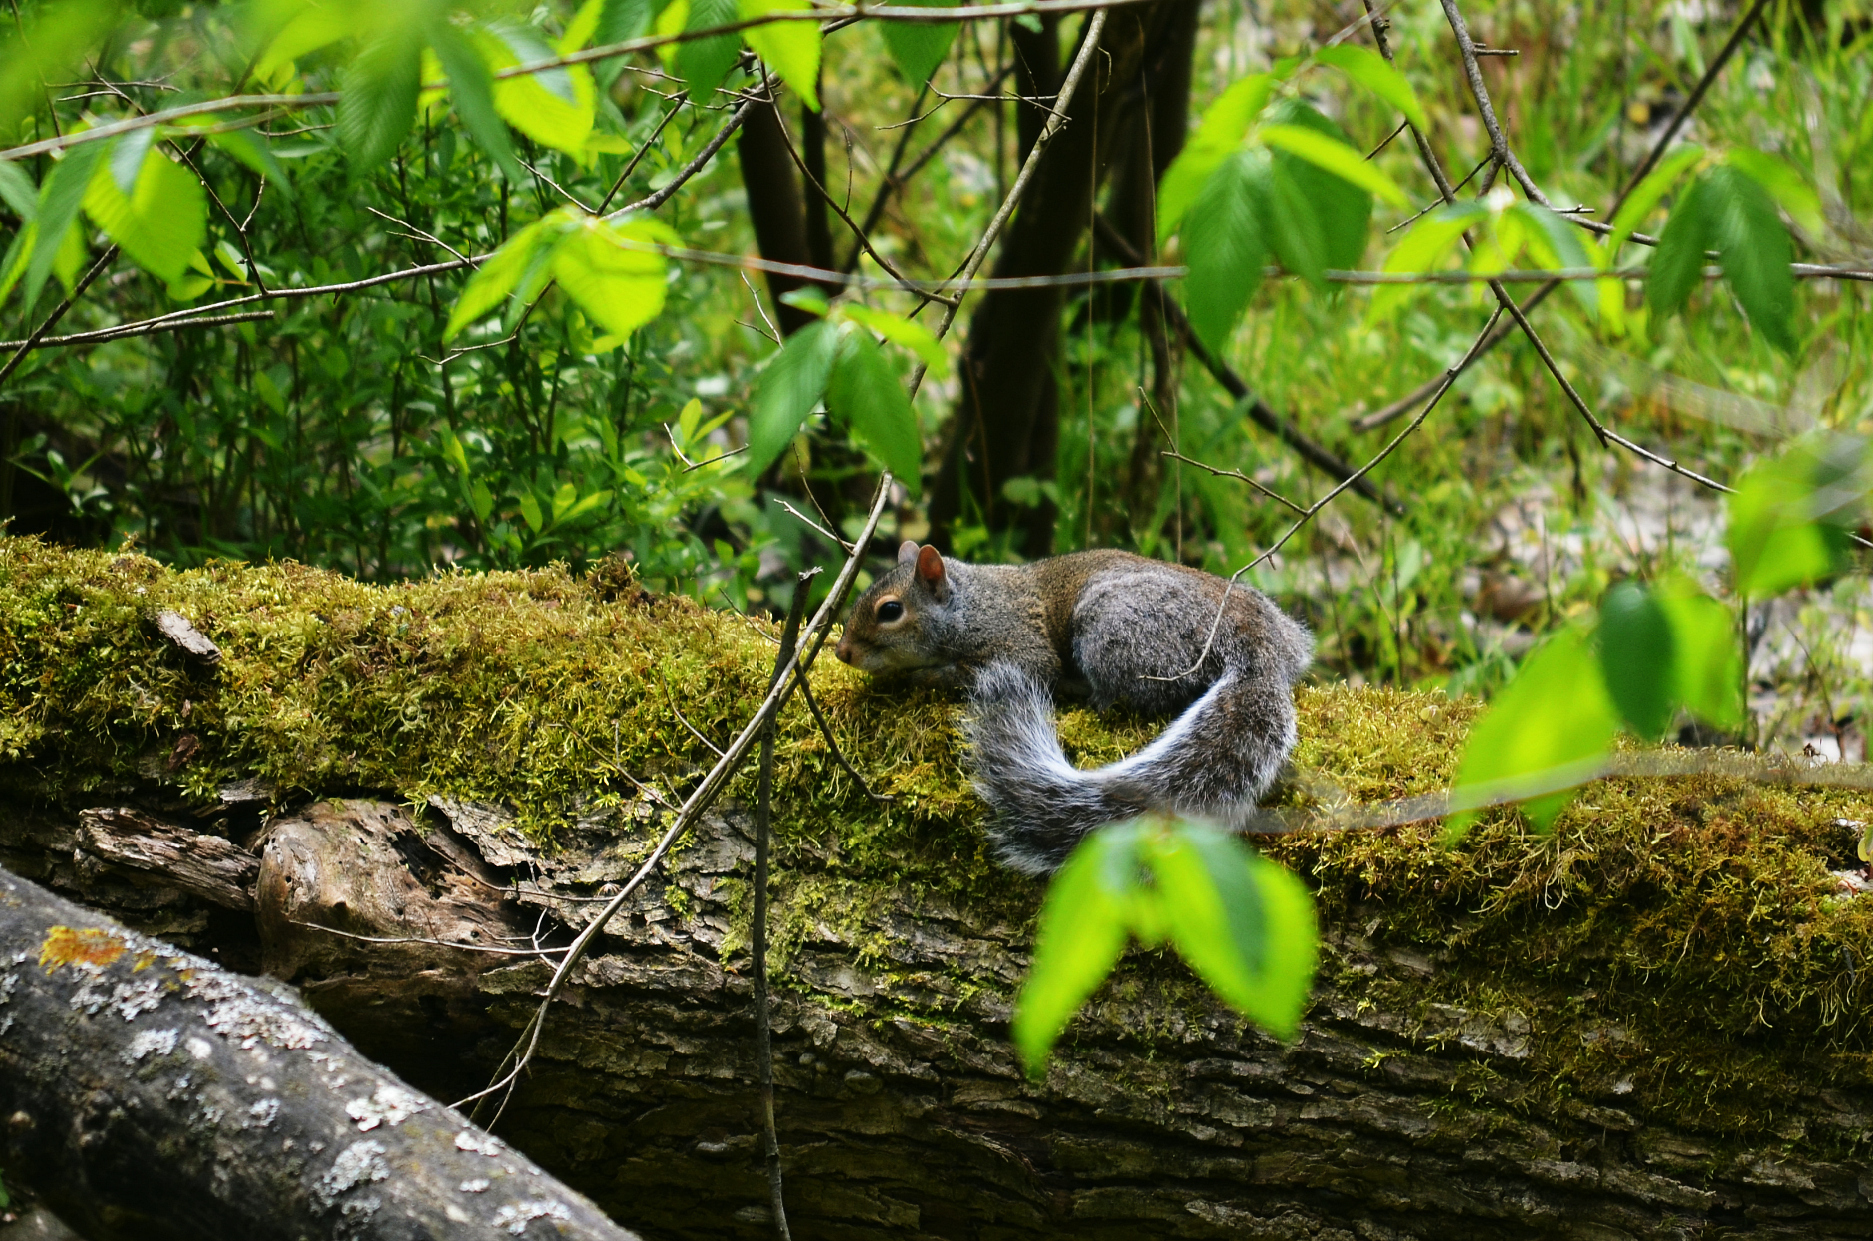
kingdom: Animalia
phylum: Chordata
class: Mammalia
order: Rodentia
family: Sciuridae
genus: Sciurus
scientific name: Sciurus carolinensis
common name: Eastern gray squirrel
